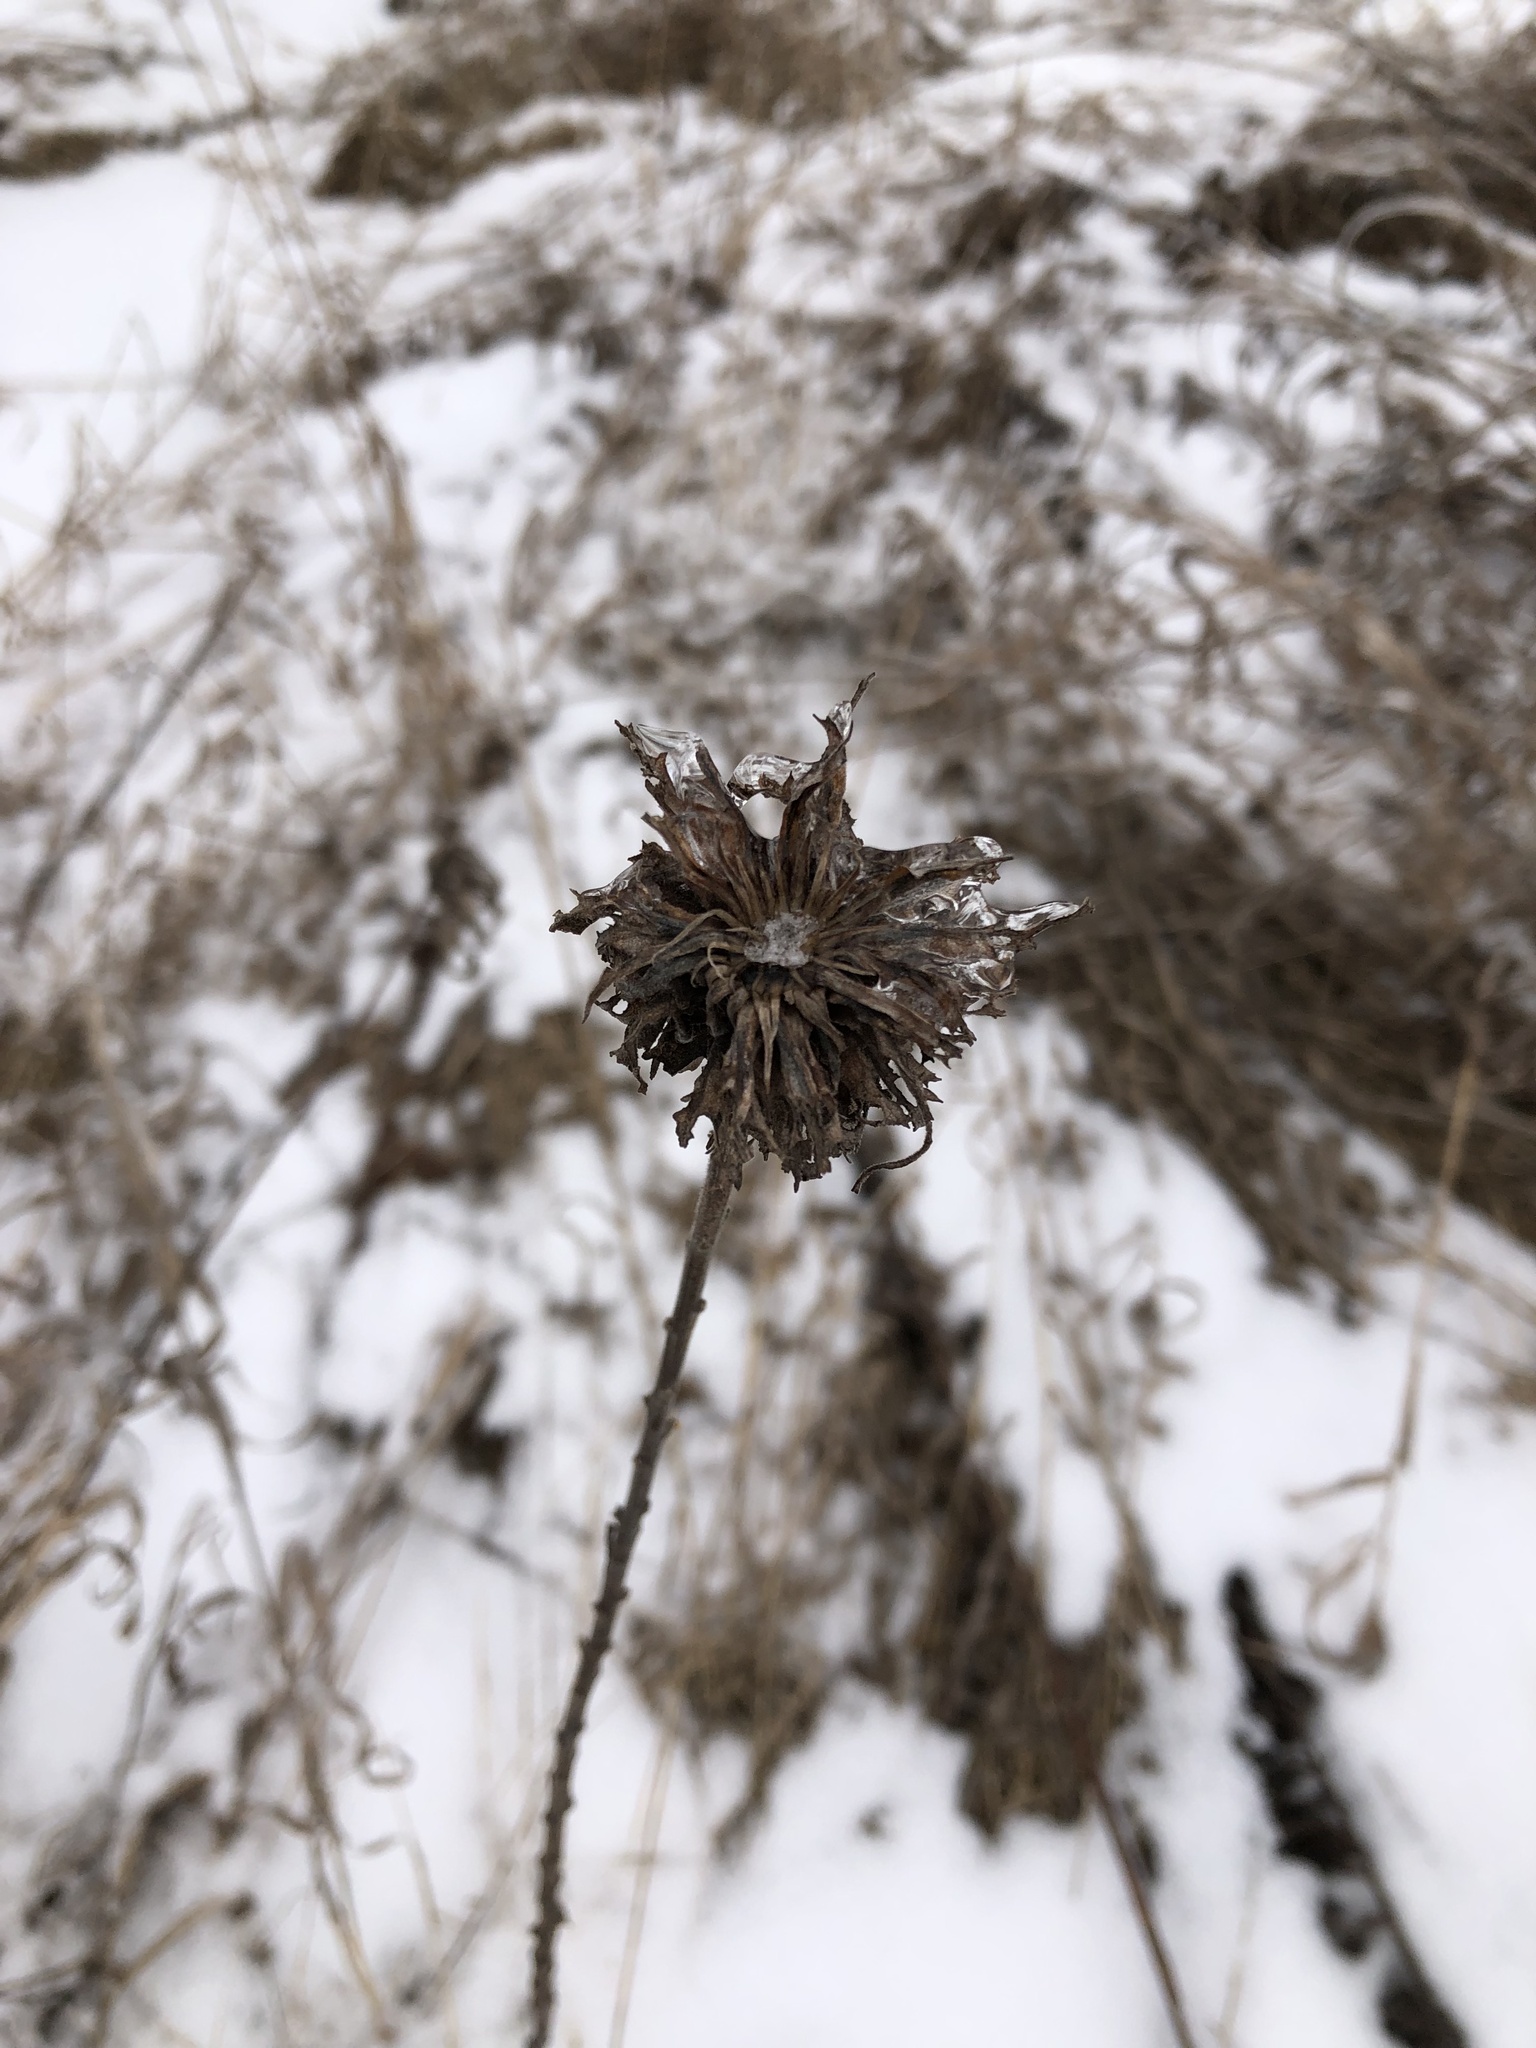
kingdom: Animalia
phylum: Arthropoda
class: Insecta
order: Diptera
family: Cecidomyiidae
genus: Rhopalomyia
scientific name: Rhopalomyia solidaginis
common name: Goldenrod bunch gall midge
